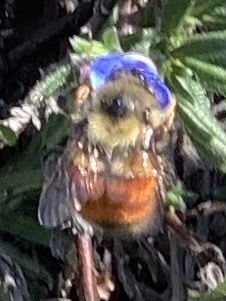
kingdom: Animalia
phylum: Arthropoda
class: Insecta
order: Hymenoptera
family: Apidae
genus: Bombus
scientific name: Bombus melanopygus
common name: Black tail bumble bee
